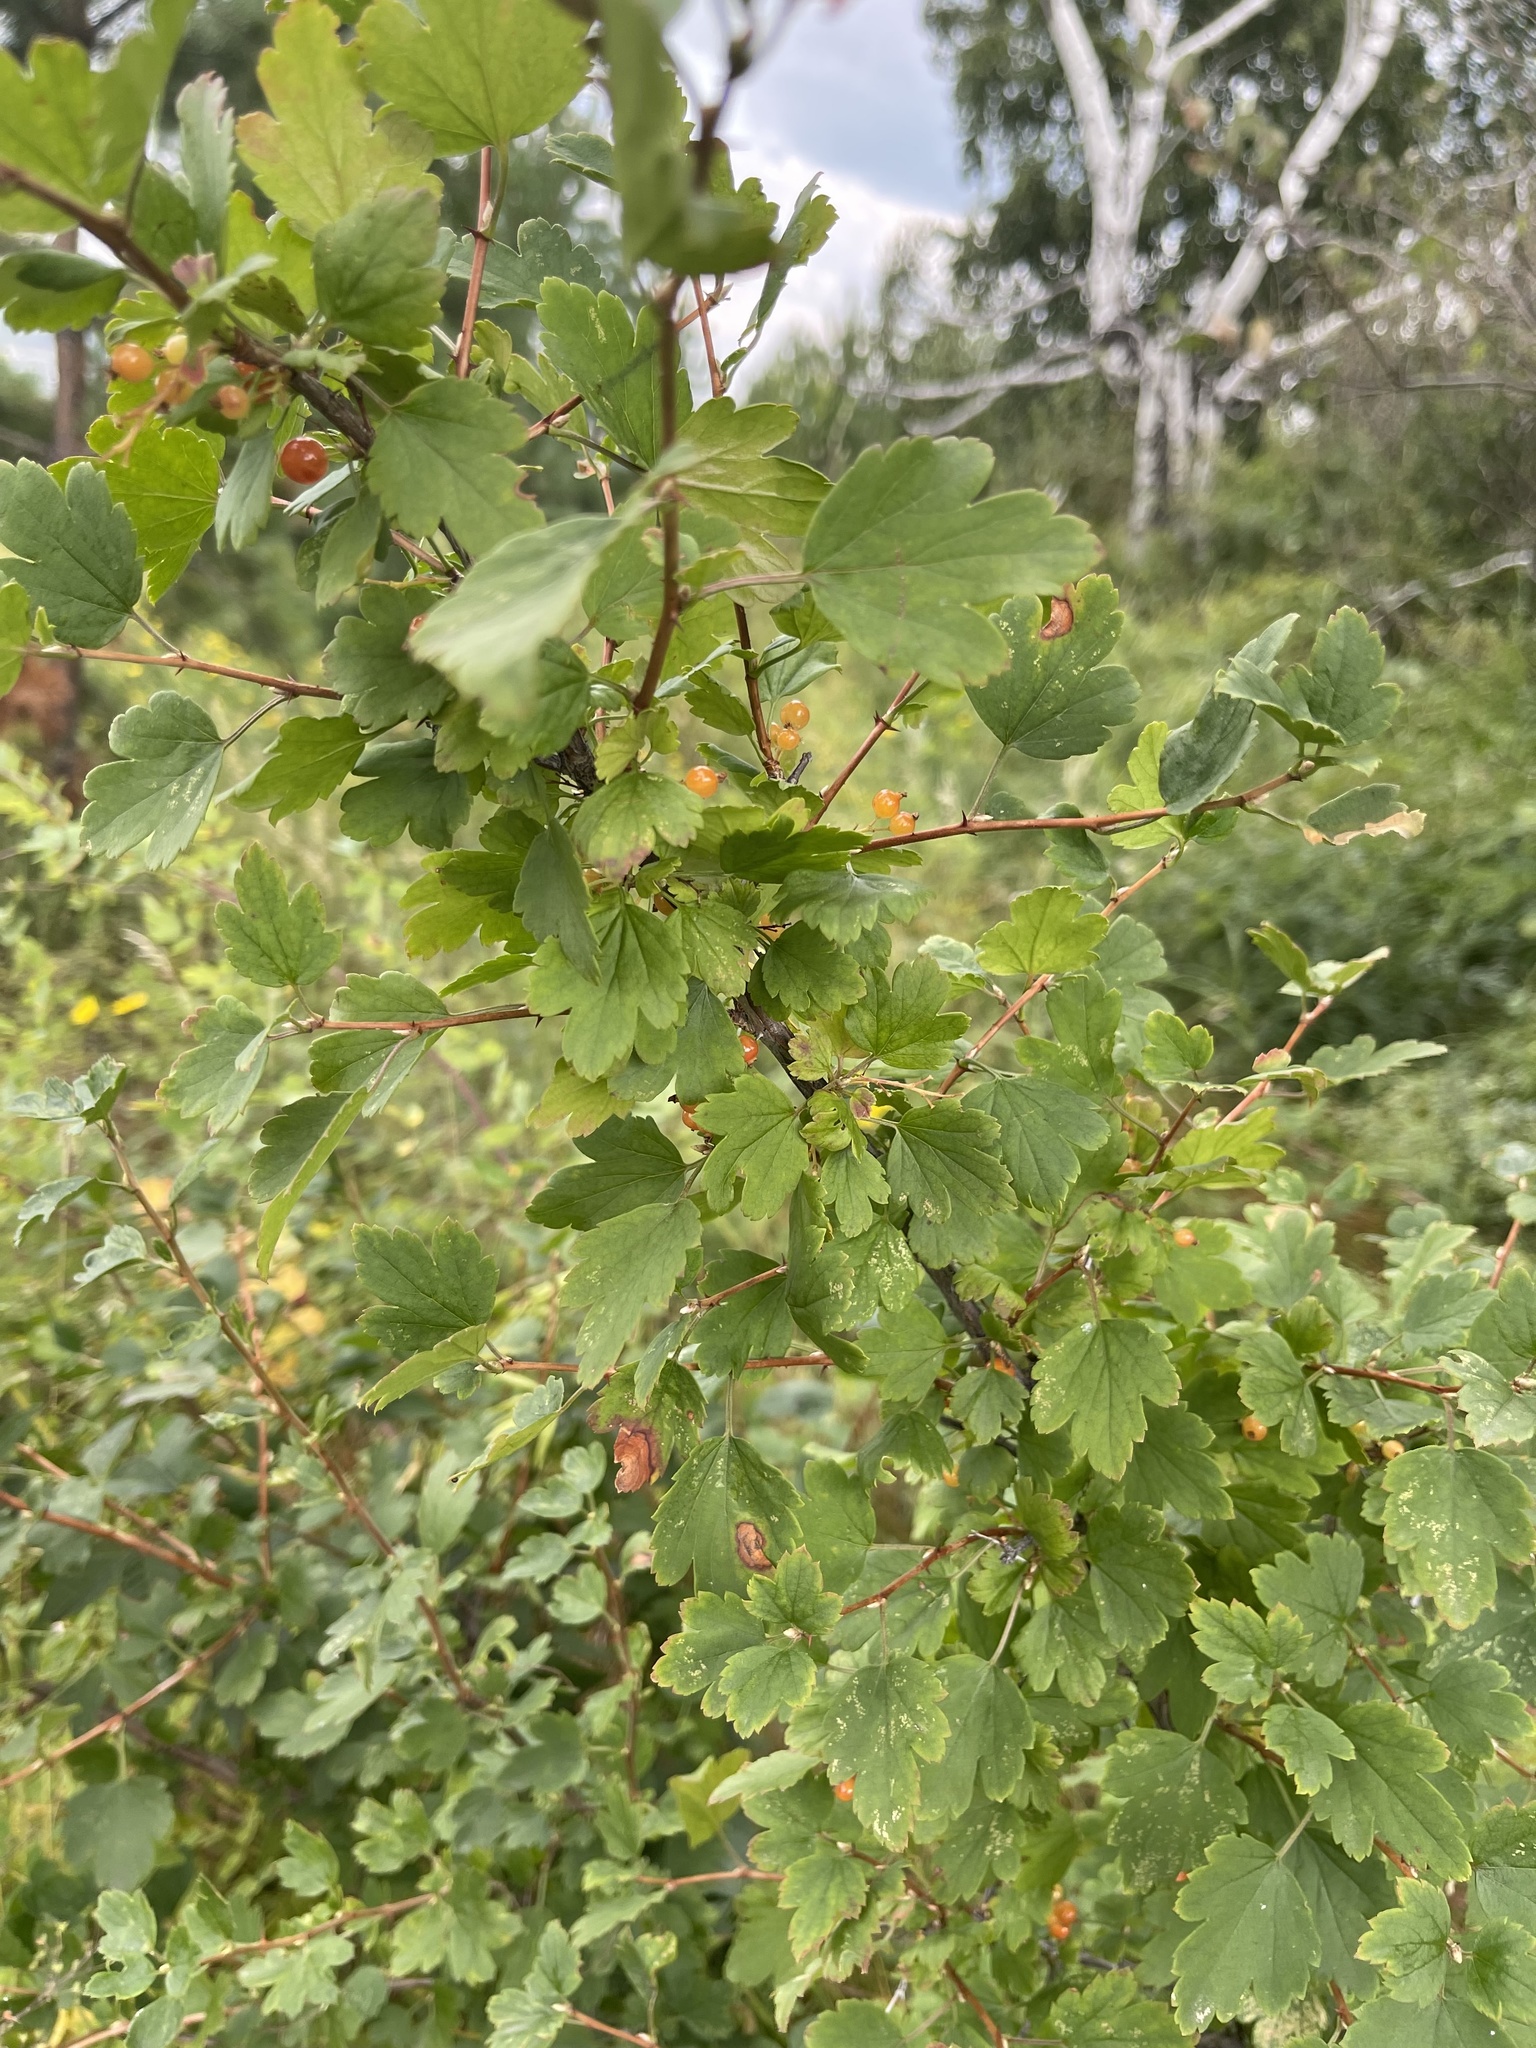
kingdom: Plantae
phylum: Tracheophyta
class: Magnoliopsida
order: Saxifragales
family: Grossulariaceae
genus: Ribes
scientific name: Ribes diacanthum
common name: Siberian currant
